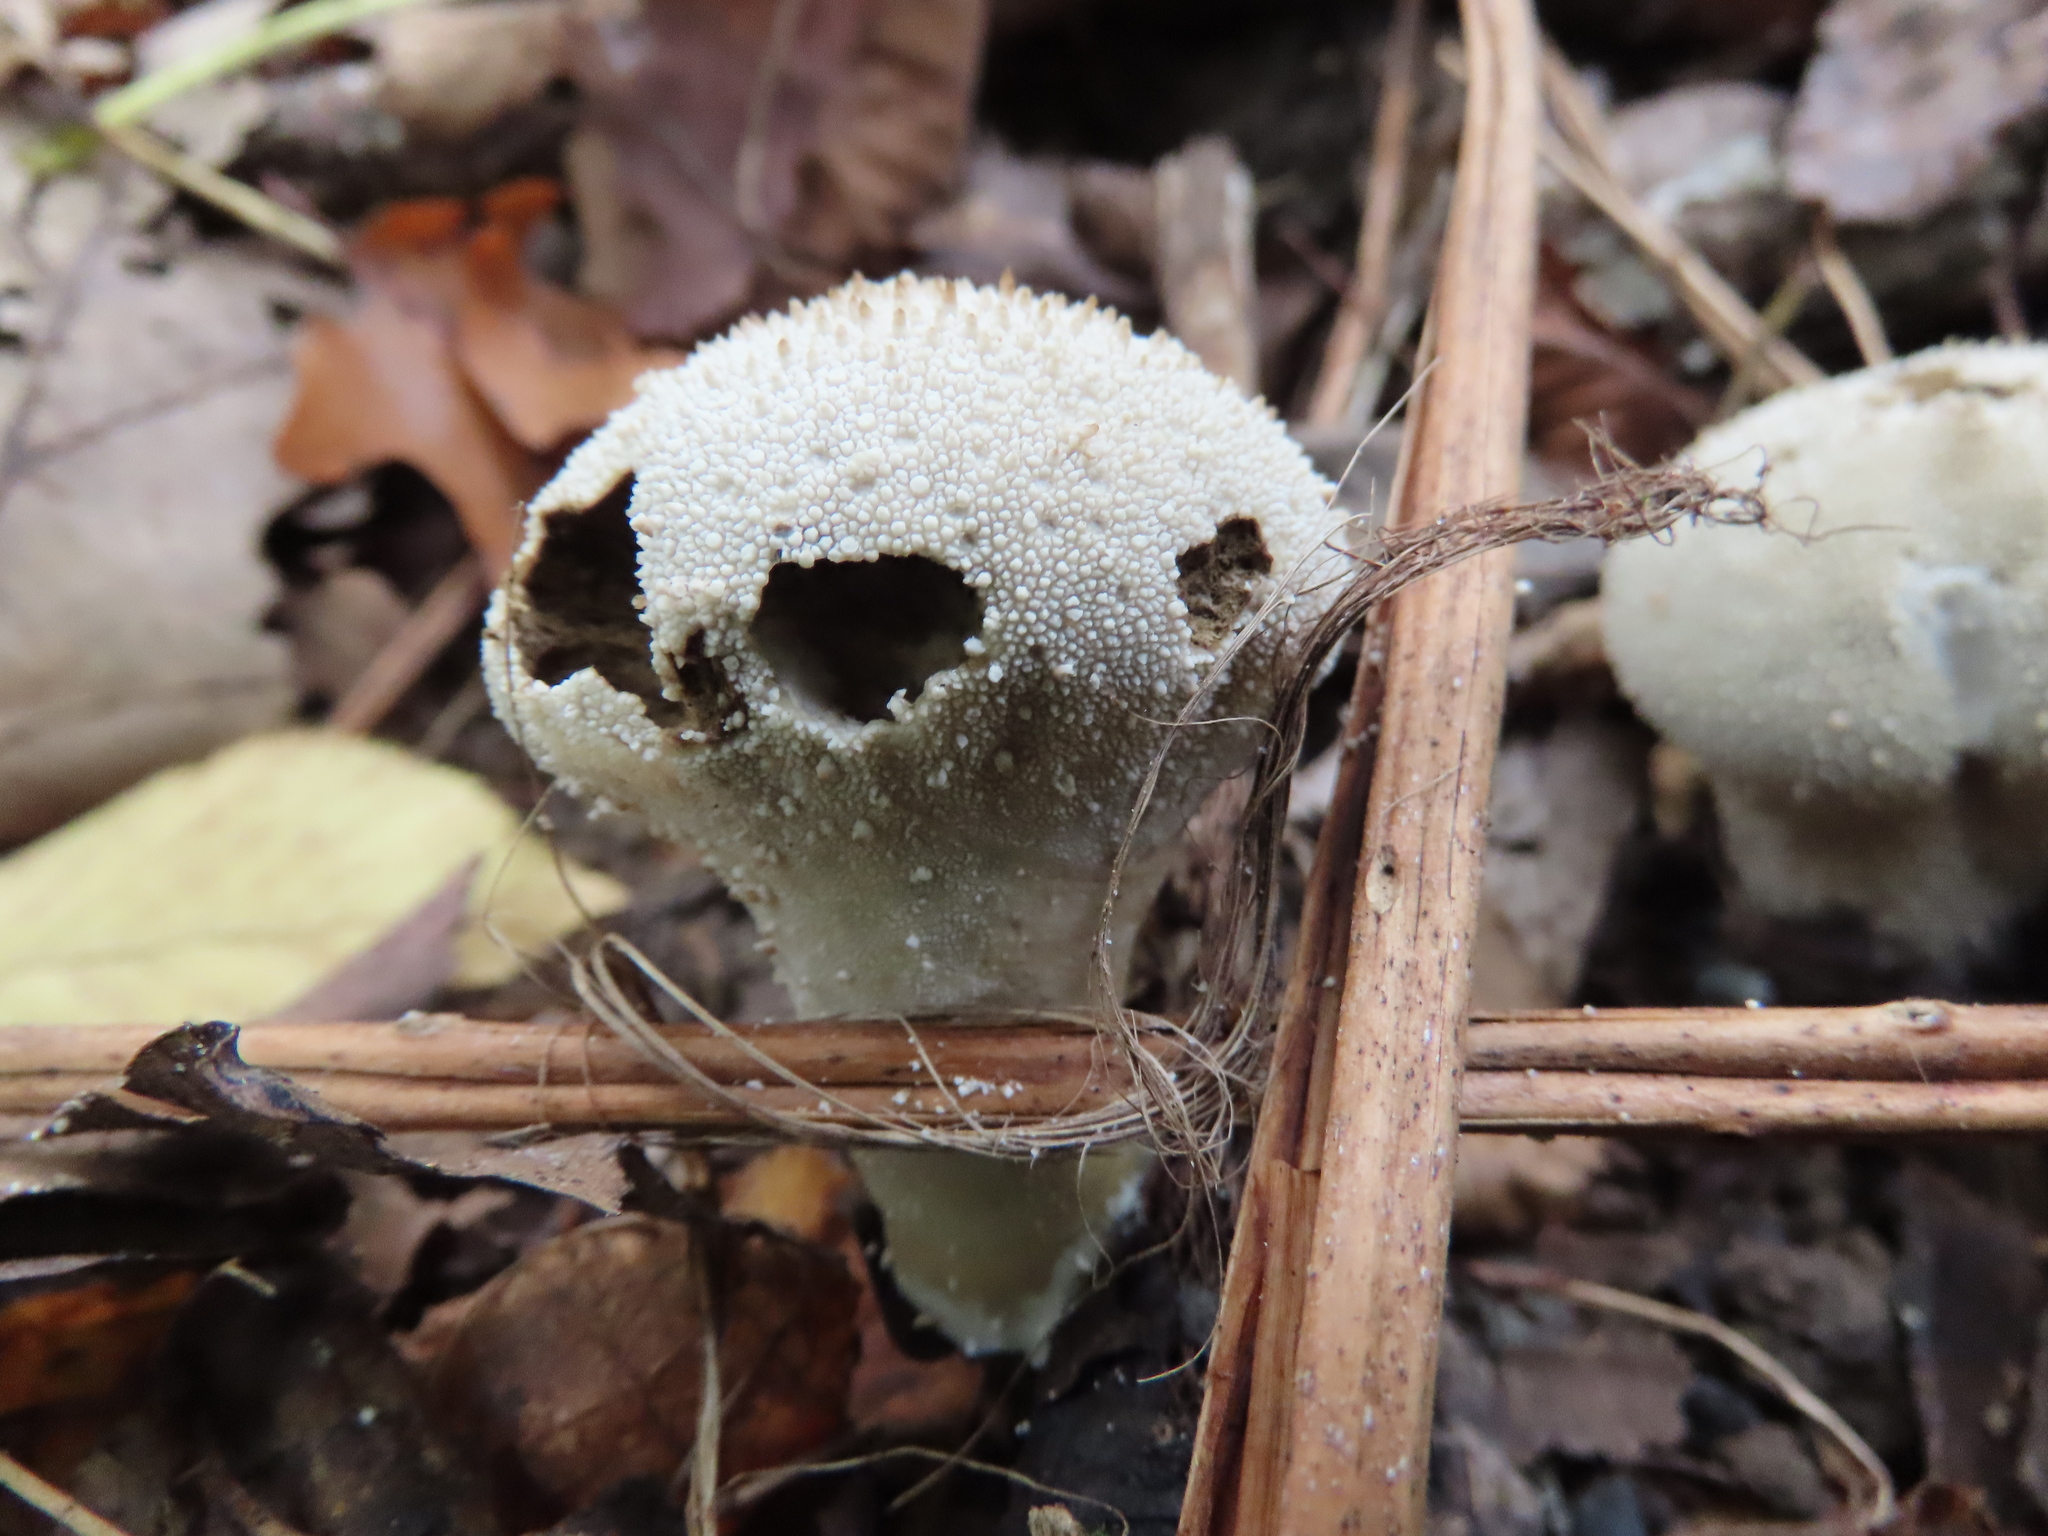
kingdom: Fungi
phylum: Basidiomycota
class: Agaricomycetes
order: Agaricales
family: Lycoperdaceae
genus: Lycoperdon
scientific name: Lycoperdon perlatum
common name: Common puffball
